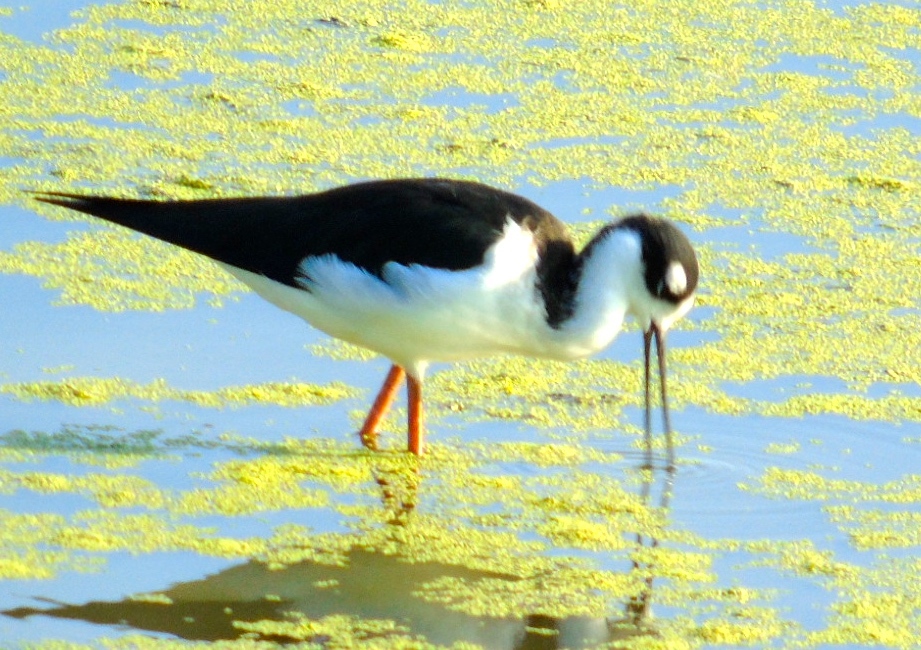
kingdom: Animalia
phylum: Chordata
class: Aves
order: Charadriiformes
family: Recurvirostridae
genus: Himantopus
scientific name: Himantopus mexicanus
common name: Black-necked stilt
